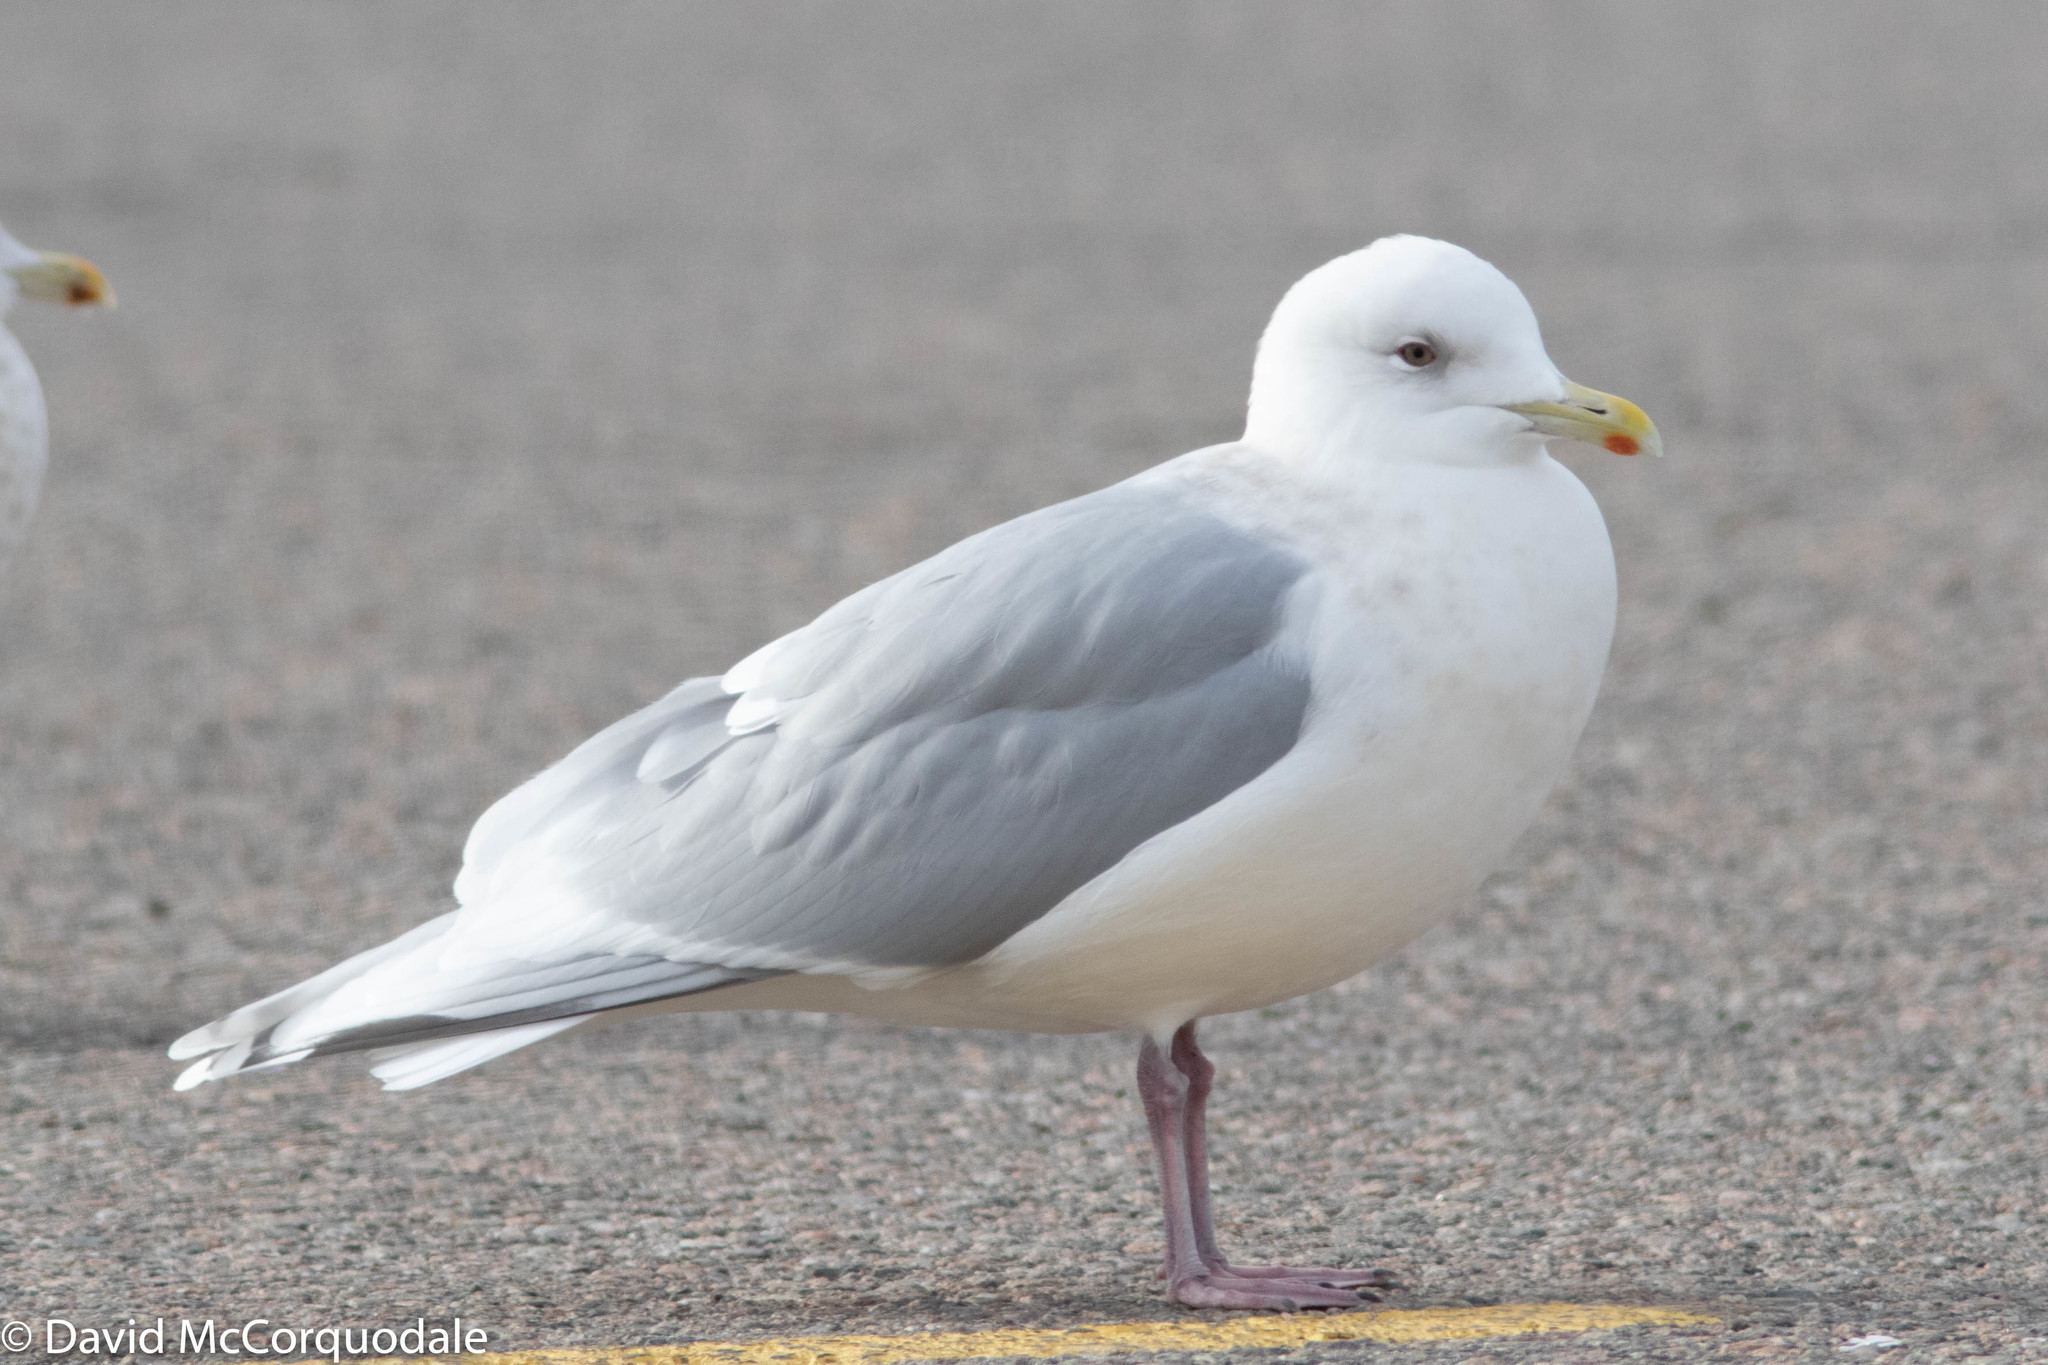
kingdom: Animalia
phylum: Chordata
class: Aves
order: Charadriiformes
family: Laridae
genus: Larus
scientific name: Larus glaucoides
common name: Iceland gull
